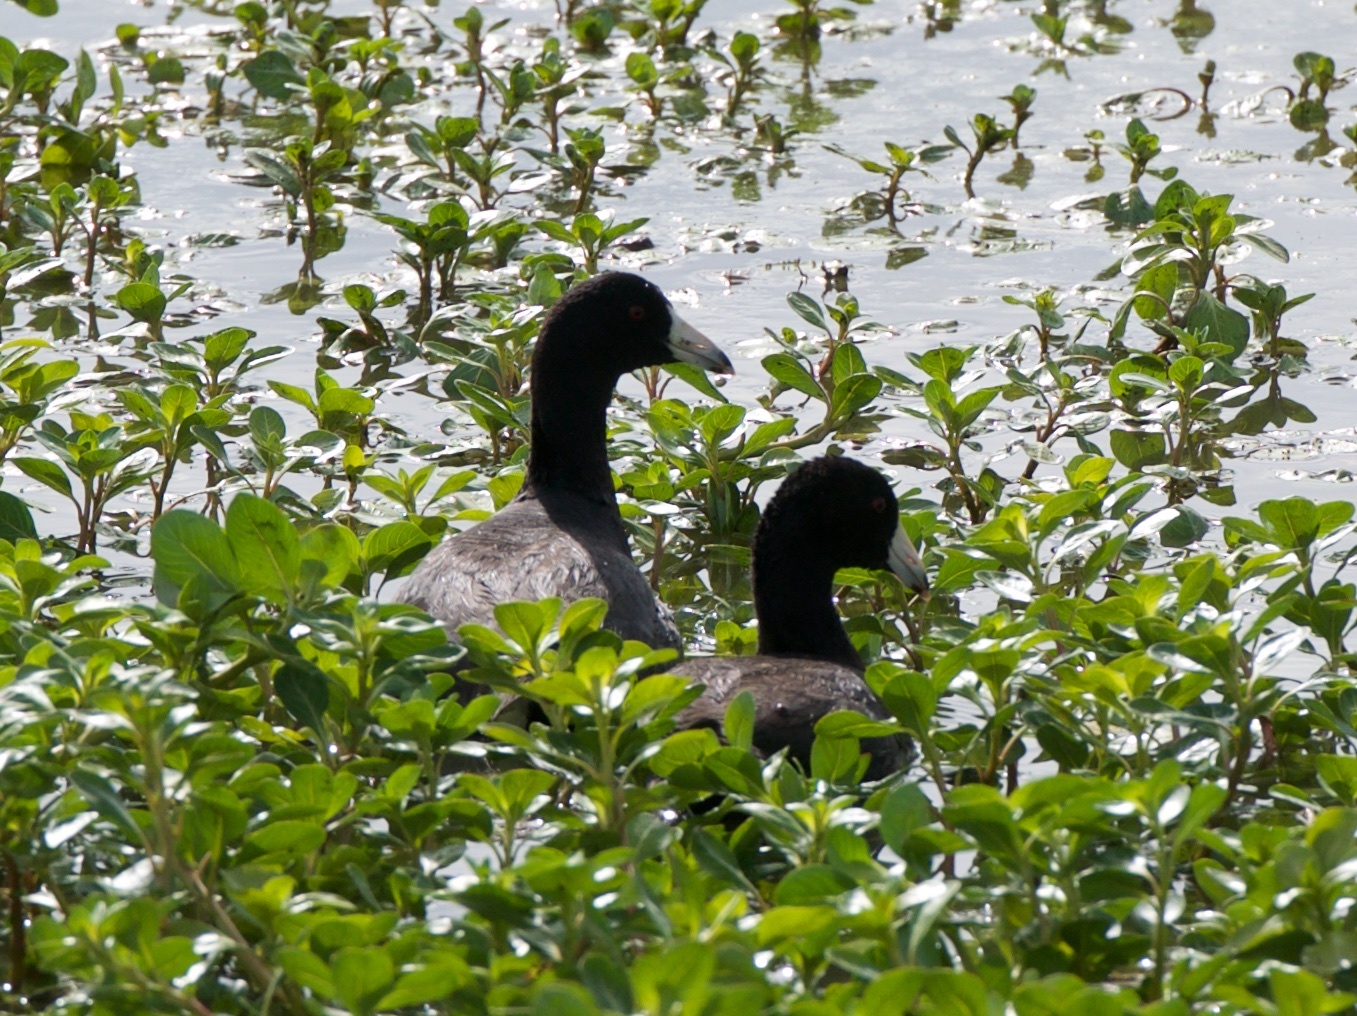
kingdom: Animalia
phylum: Chordata
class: Aves
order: Gruiformes
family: Rallidae
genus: Fulica
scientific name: Fulica americana
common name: American coot
